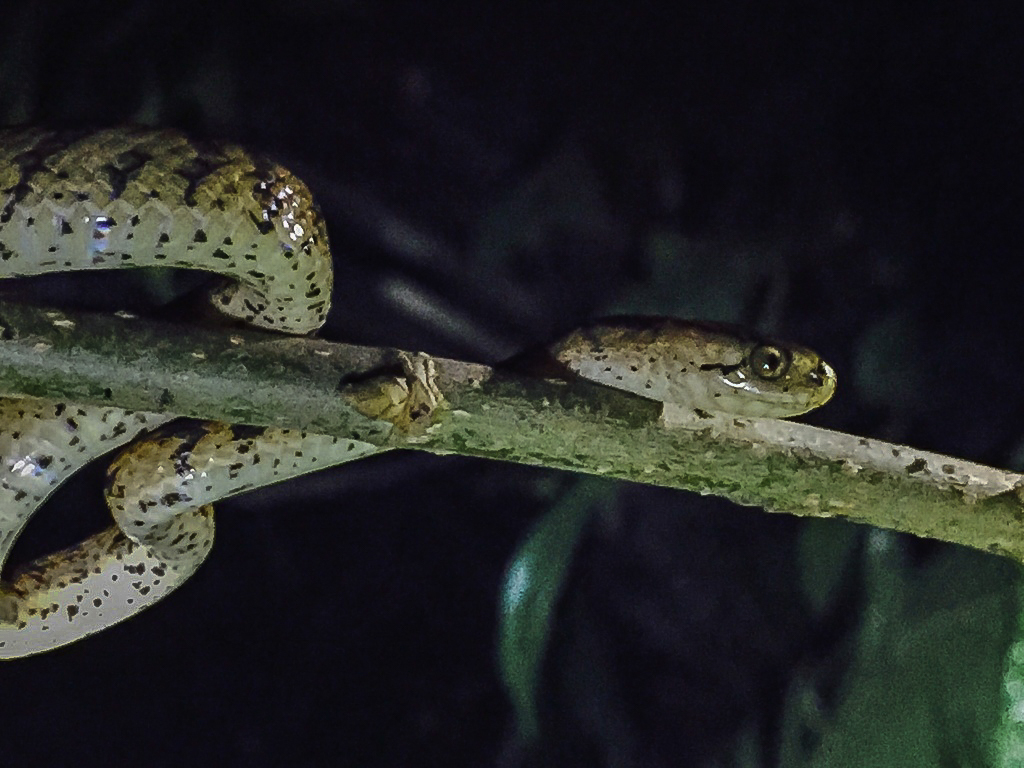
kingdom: Animalia
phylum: Chordata
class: Squamata
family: Pareidae
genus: Pareas
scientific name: Pareas atayal
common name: Atayal slug-eating snake
